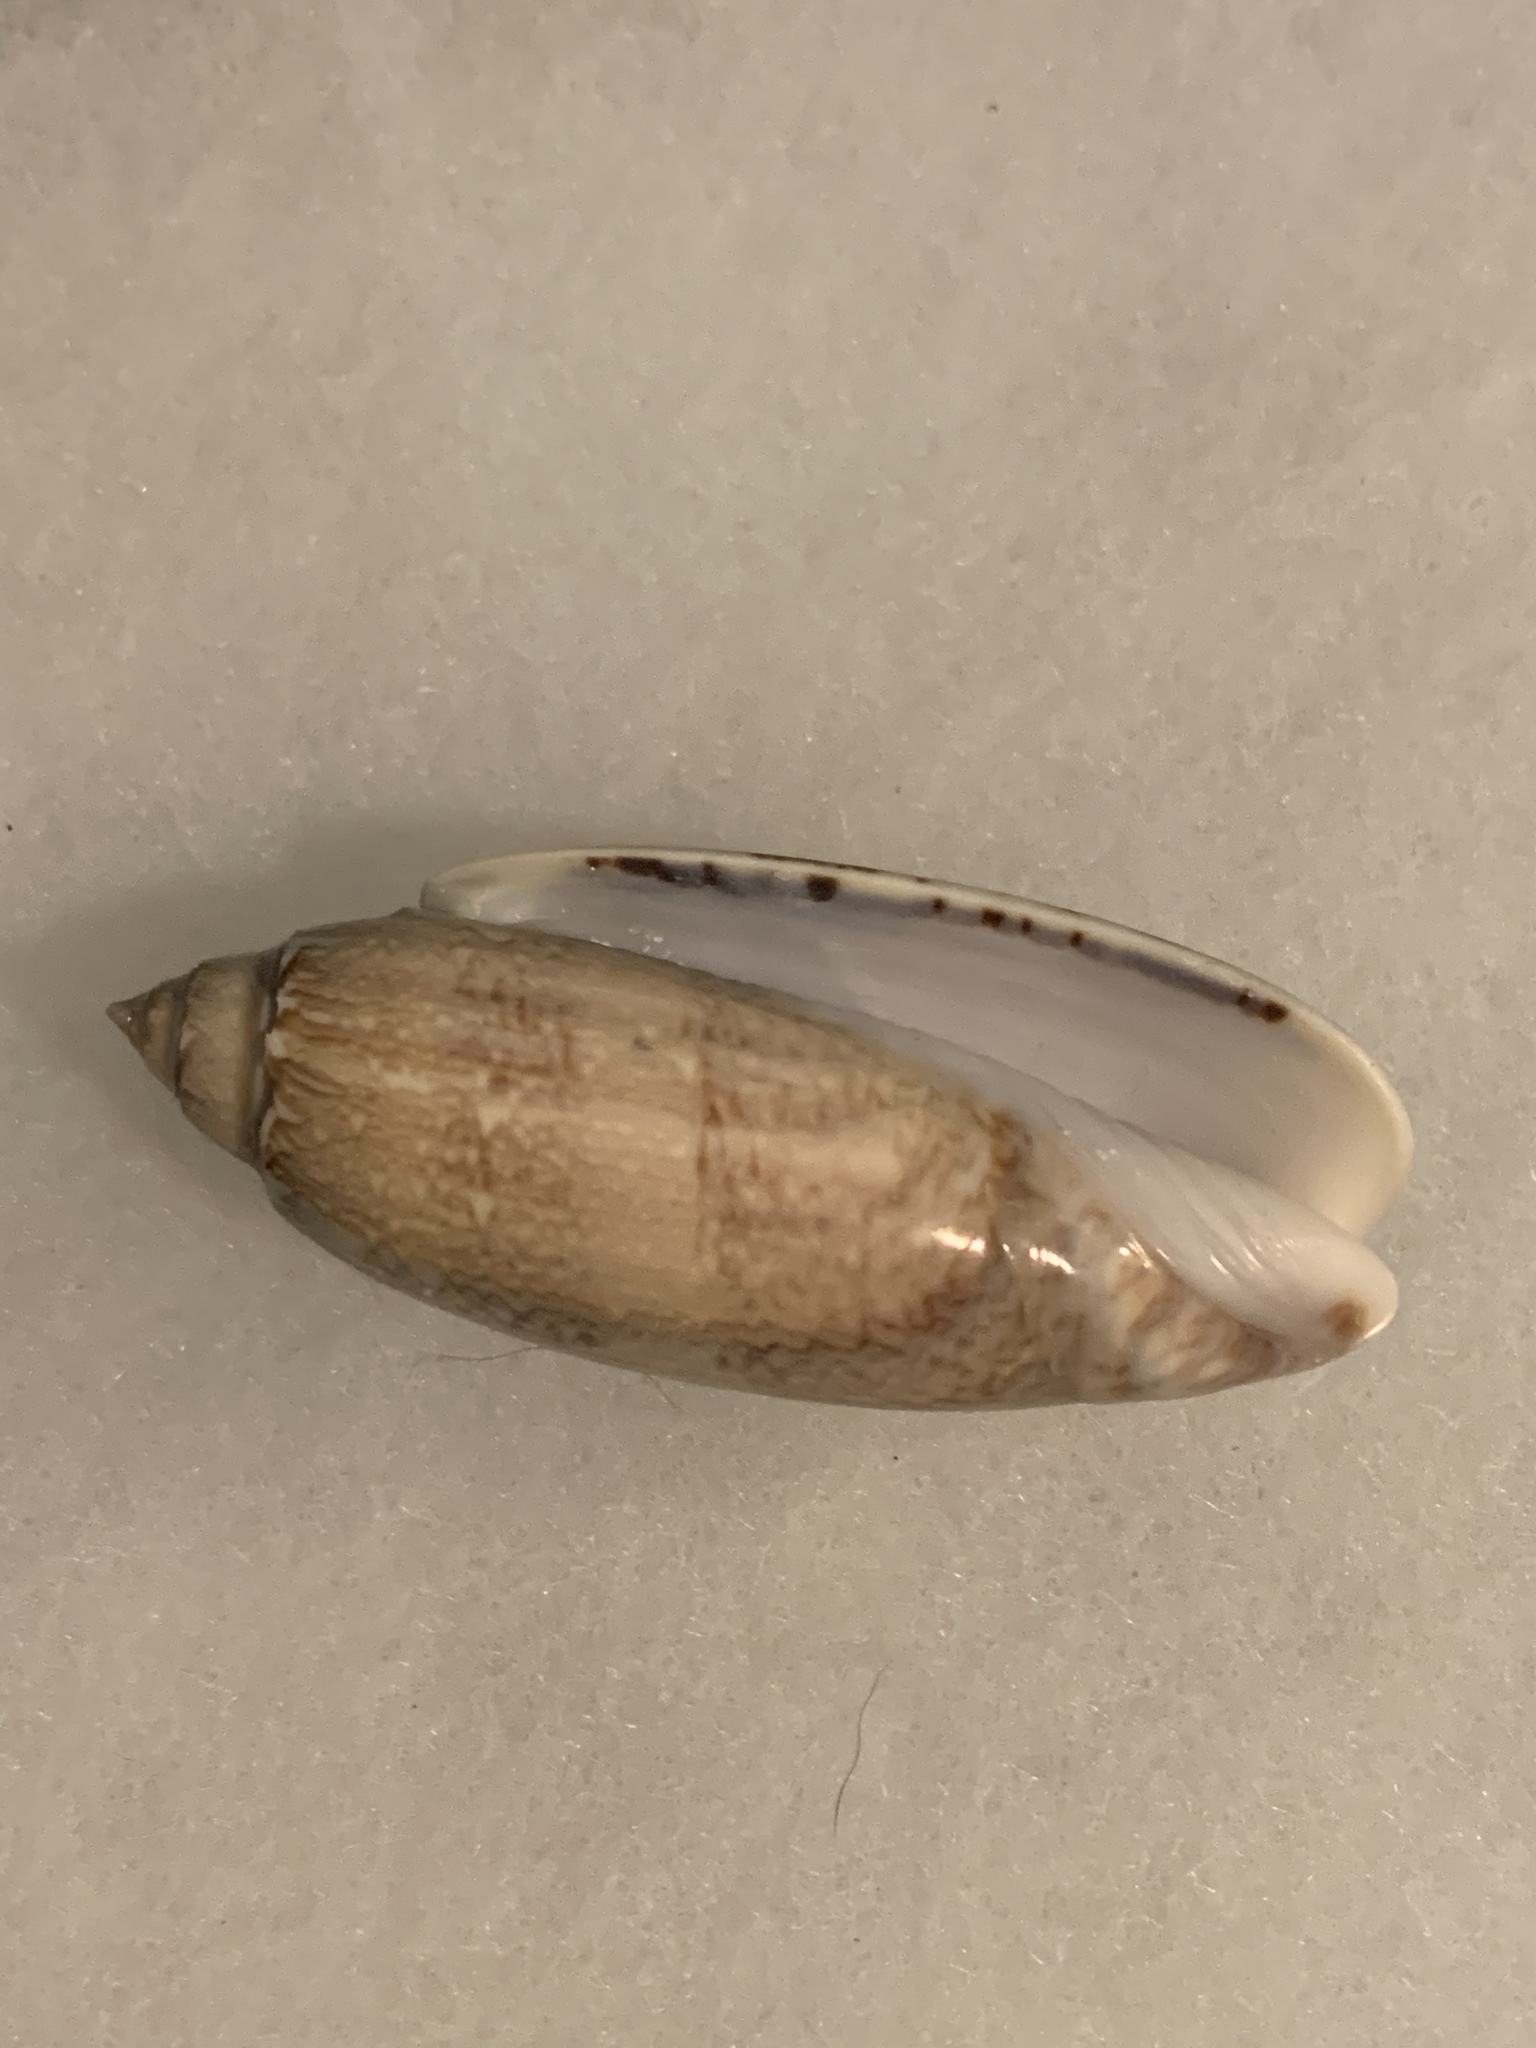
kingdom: Animalia
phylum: Mollusca
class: Gastropoda
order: Neogastropoda
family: Olividae
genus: Oliva
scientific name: Oliva sayana
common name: Lettered olive
